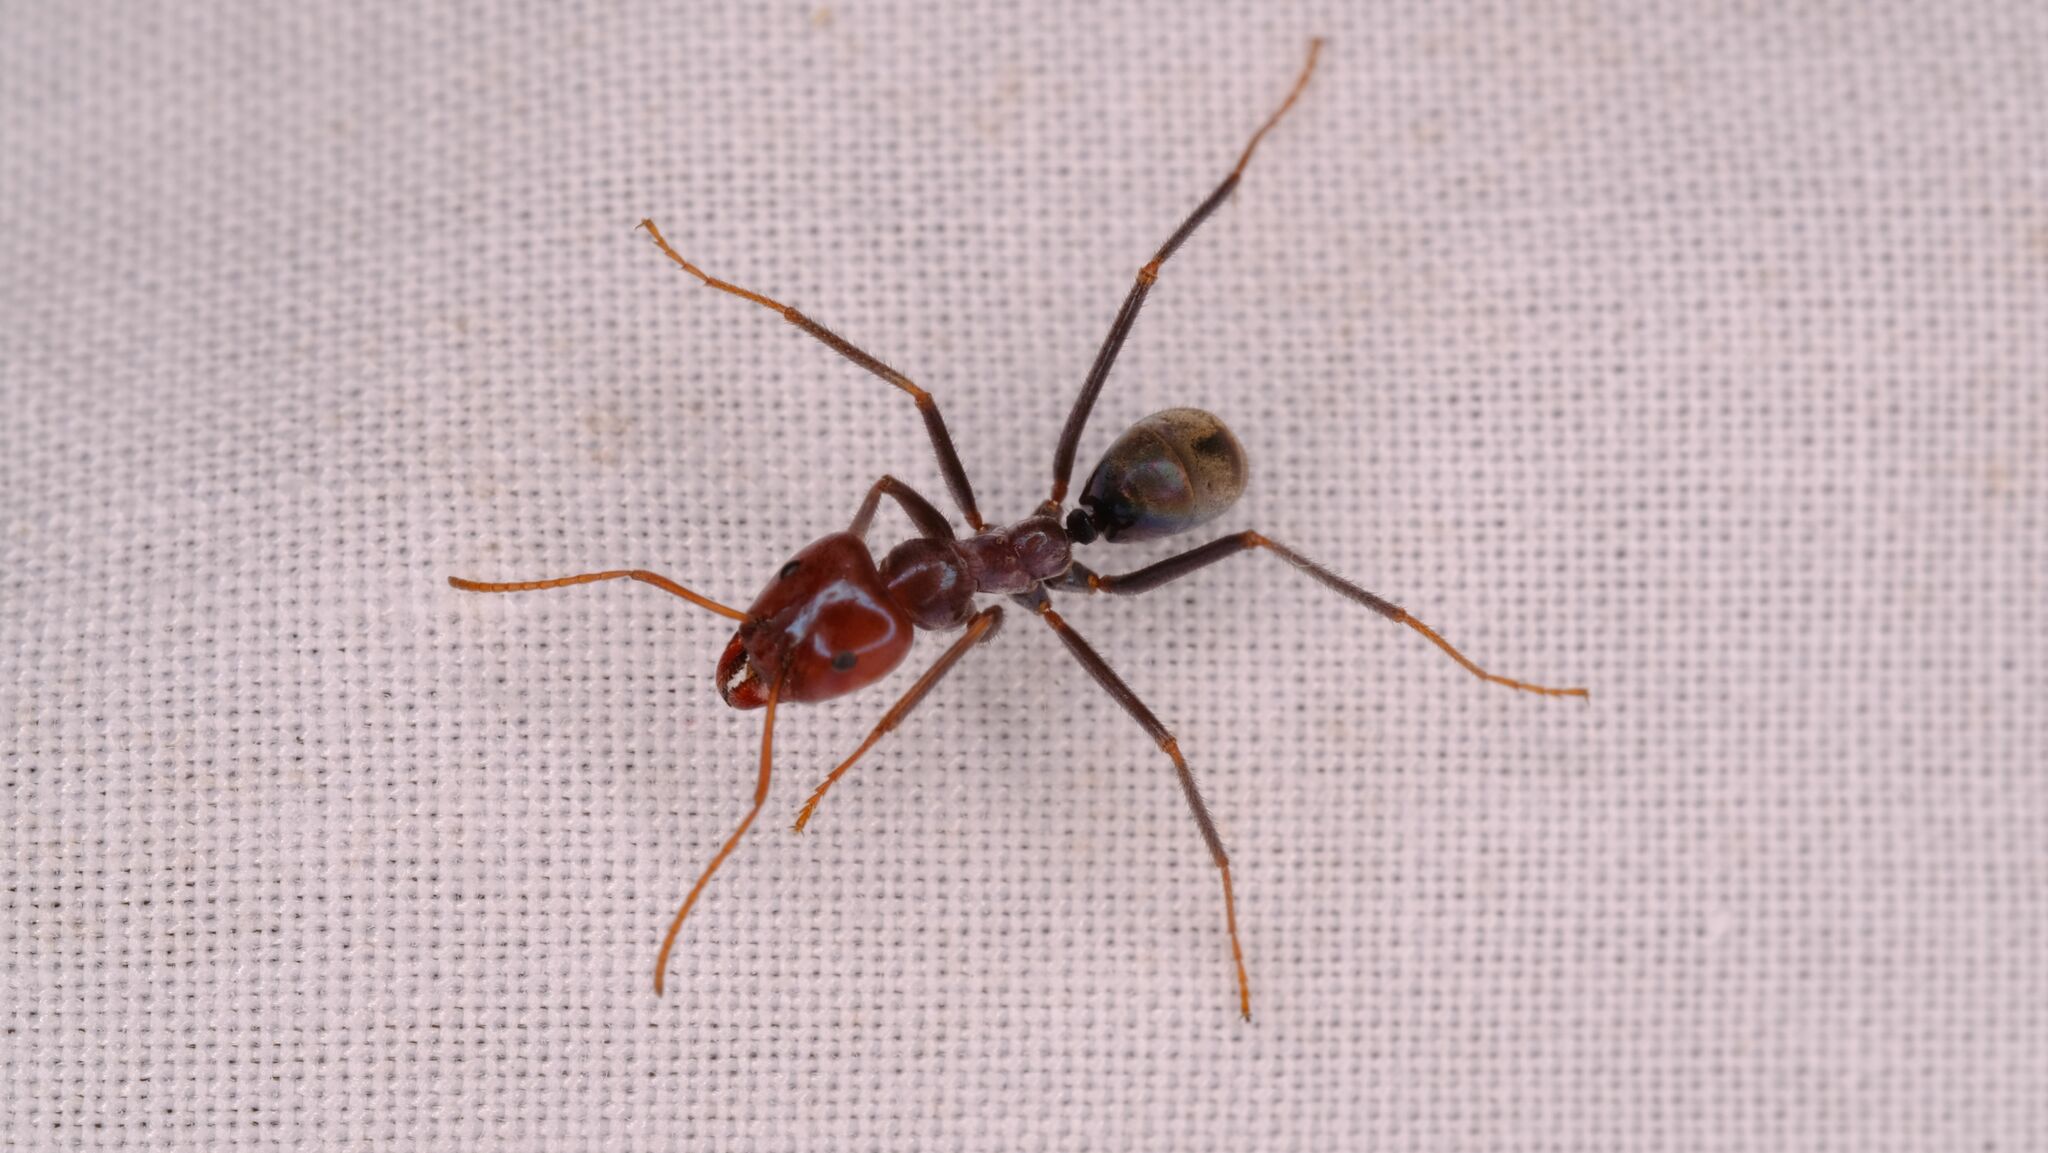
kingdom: Animalia
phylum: Arthropoda
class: Insecta
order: Hymenoptera
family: Formicidae
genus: Iridomyrmex
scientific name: Iridomyrmex purpureus
